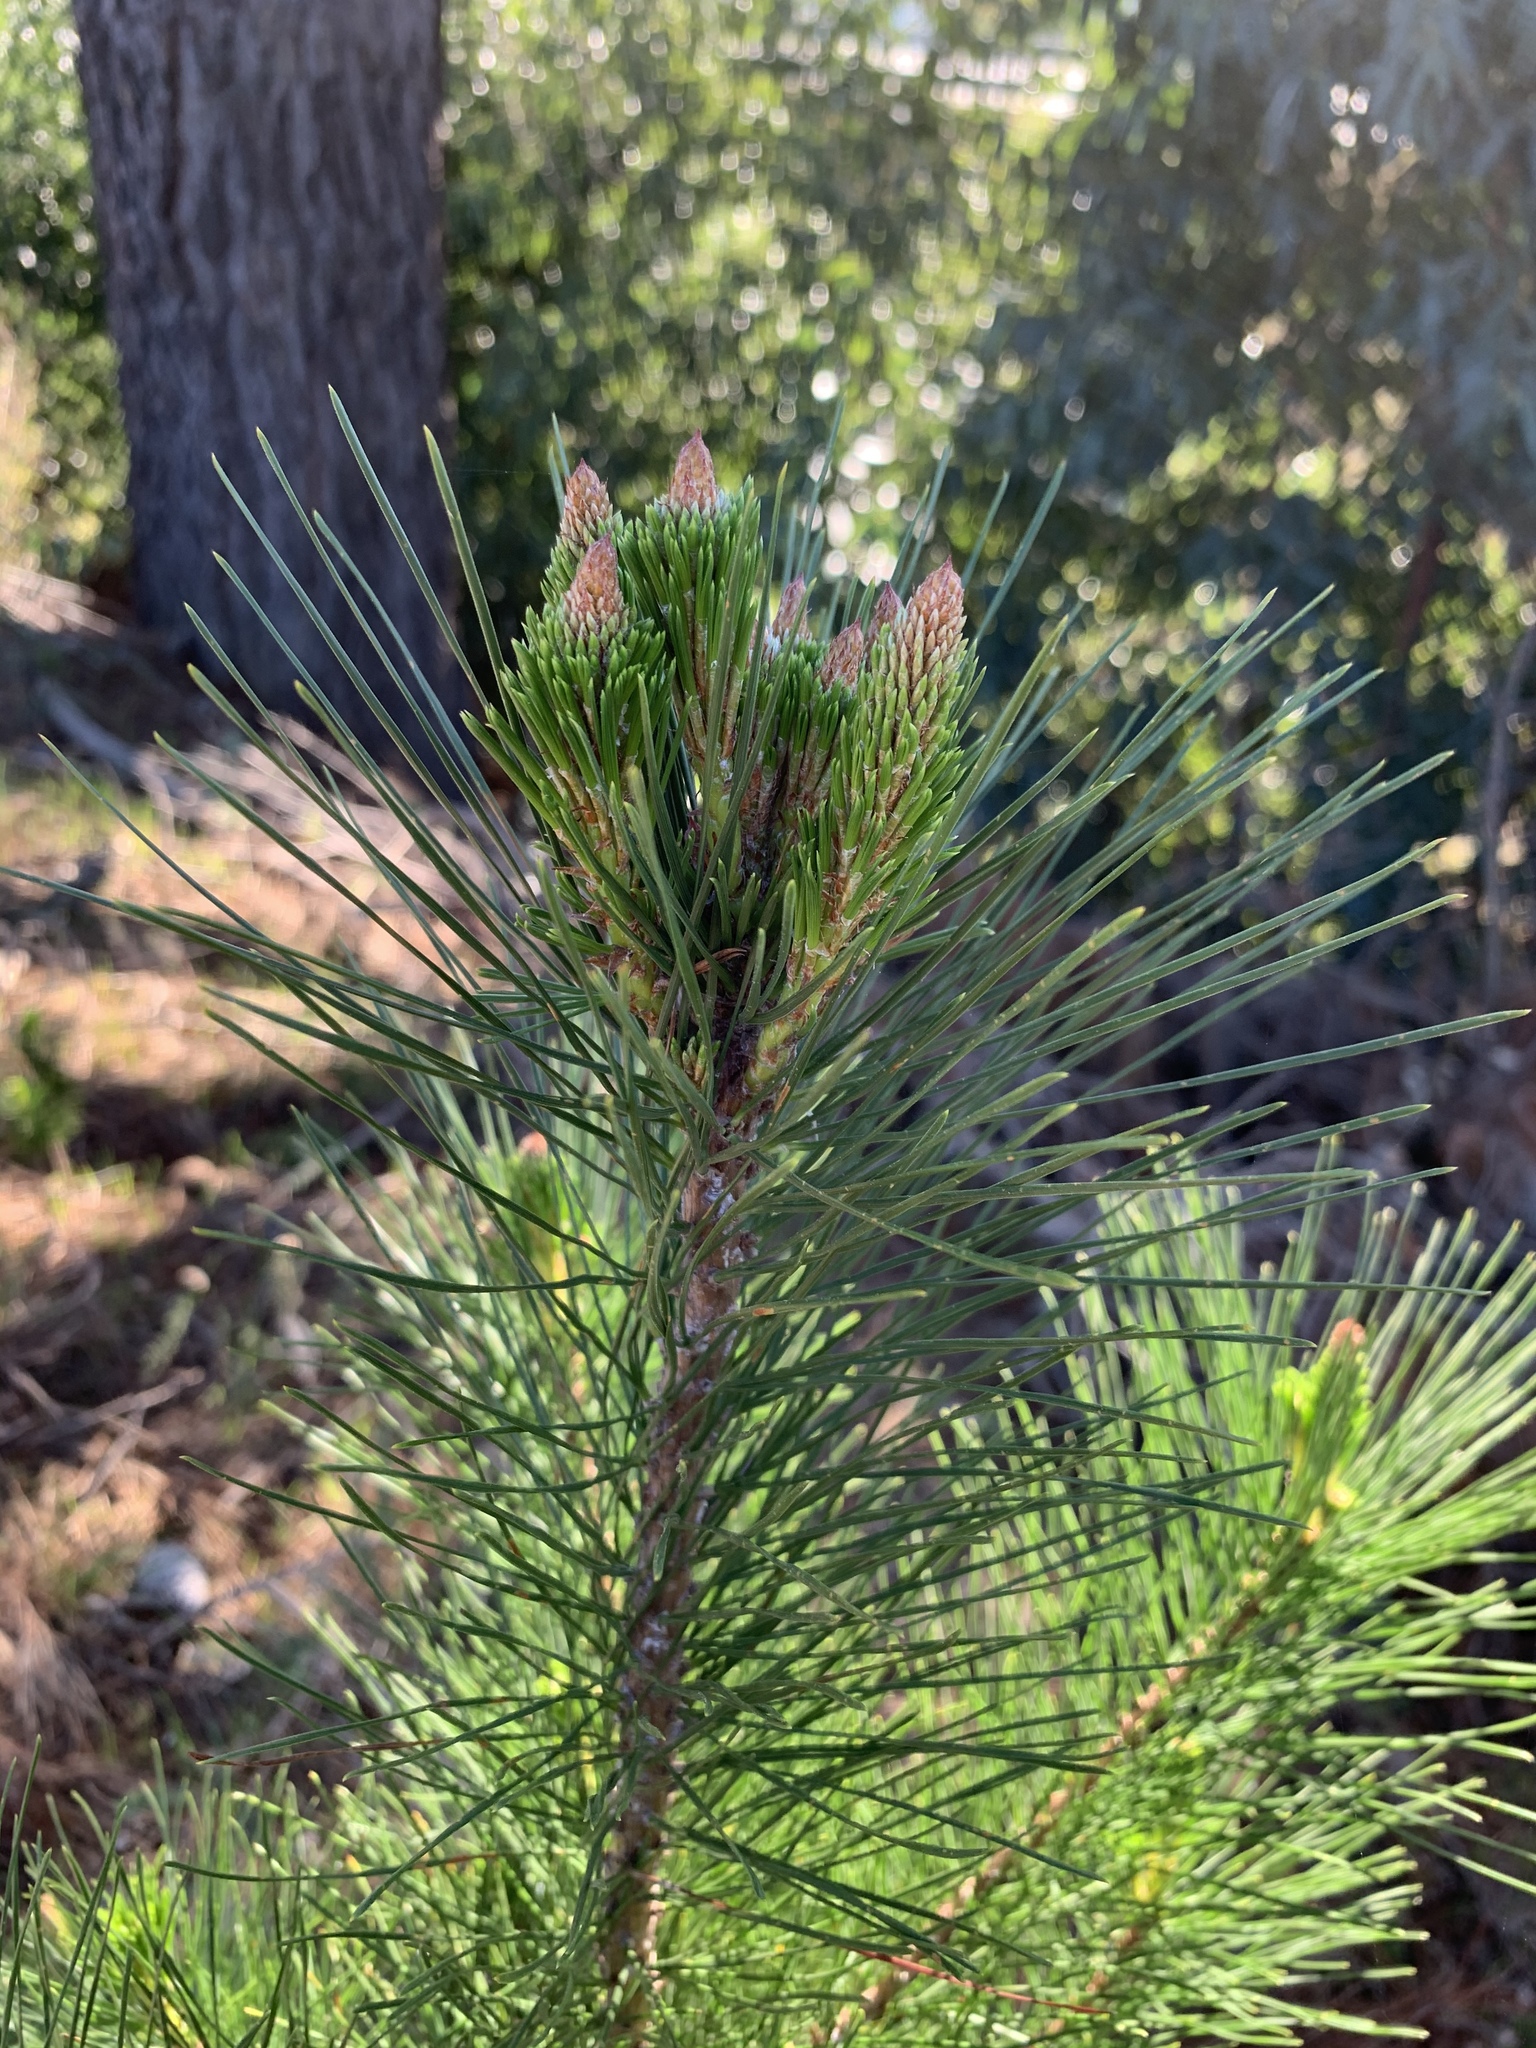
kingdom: Plantae
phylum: Tracheophyta
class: Pinopsida
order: Pinales
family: Pinaceae
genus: Pinus
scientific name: Pinus radiata
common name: Monterey pine
